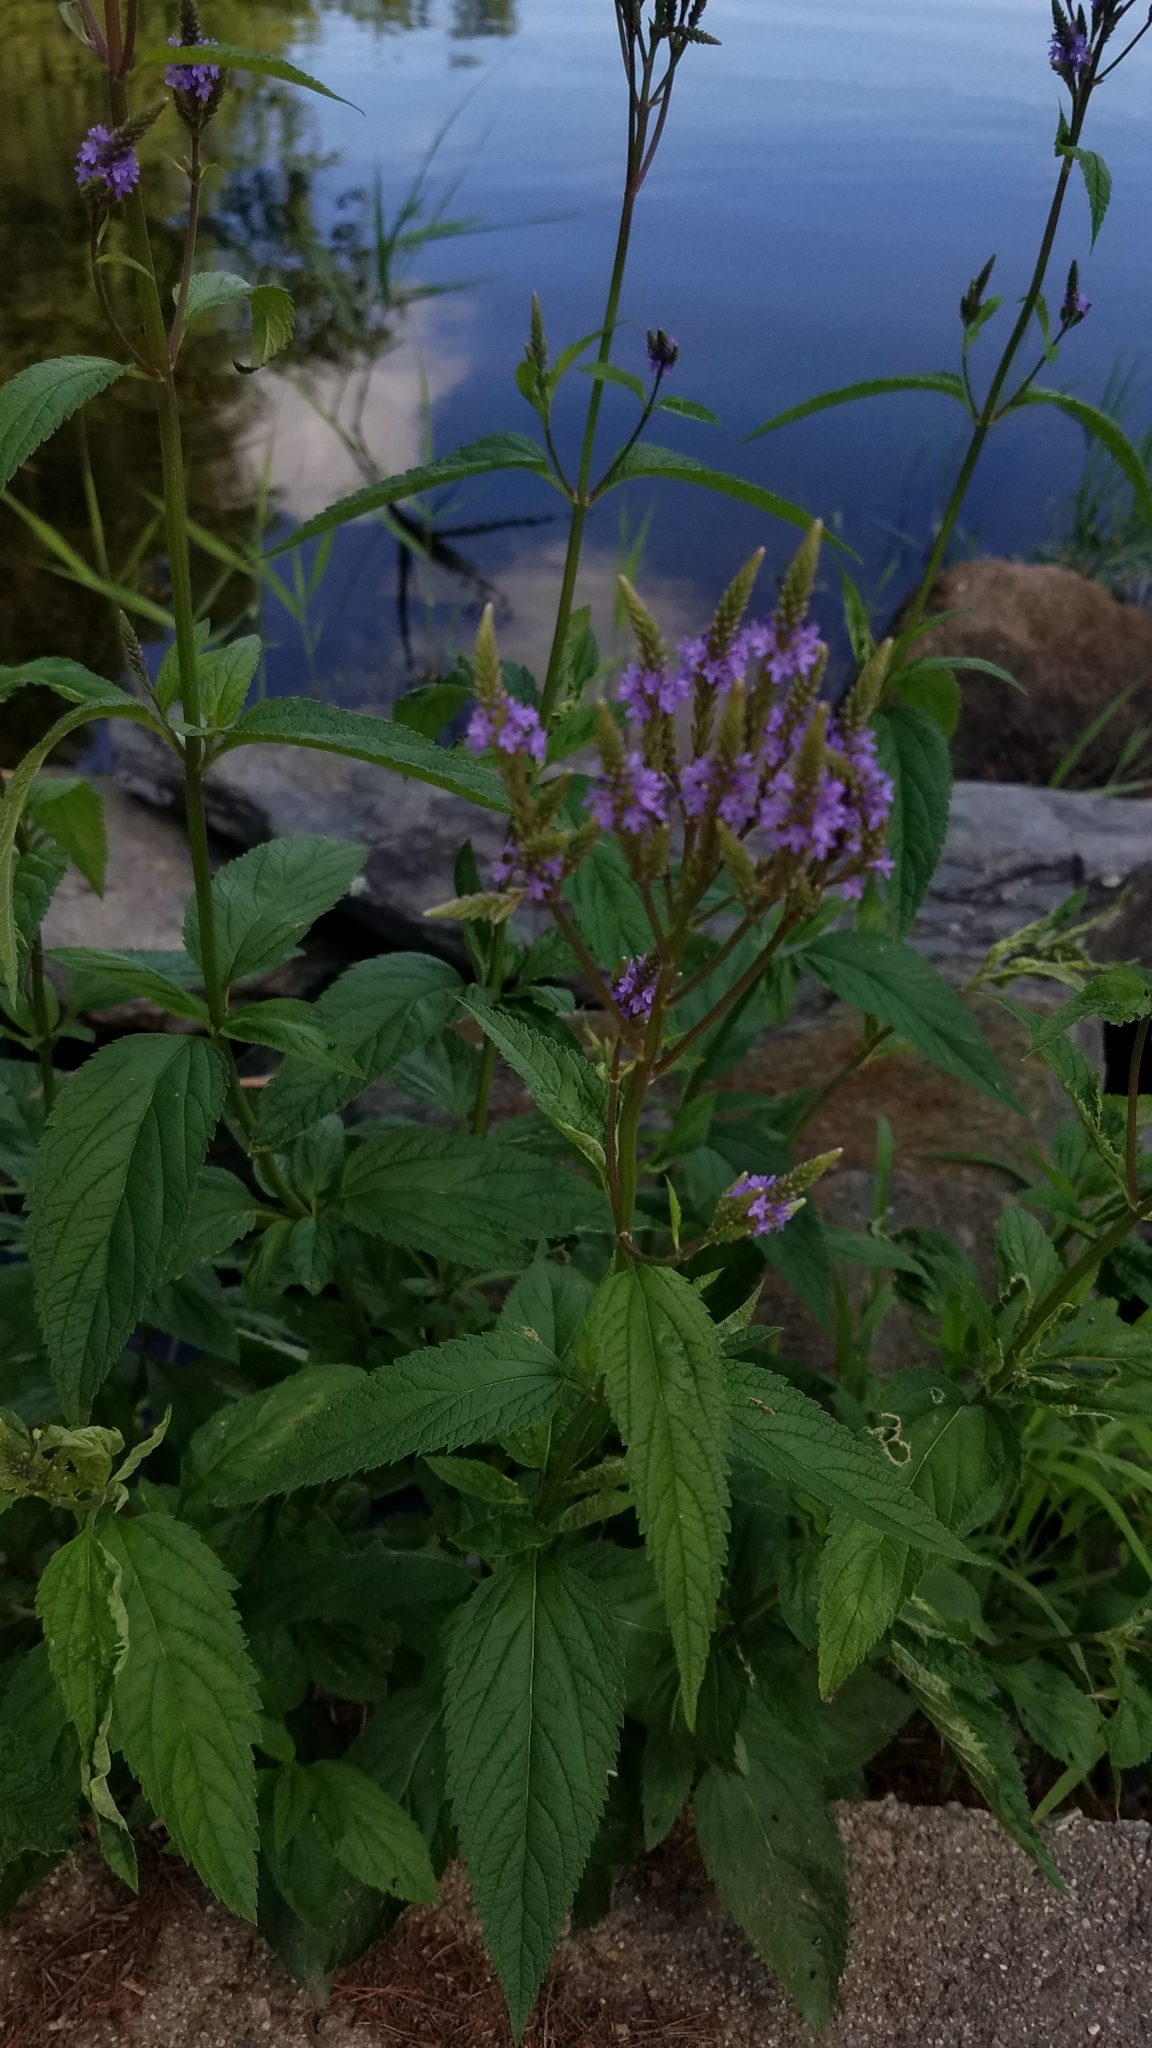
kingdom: Plantae
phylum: Tracheophyta
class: Magnoliopsida
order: Lamiales
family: Verbenaceae
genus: Verbena
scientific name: Verbena hastata
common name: American blue vervain
